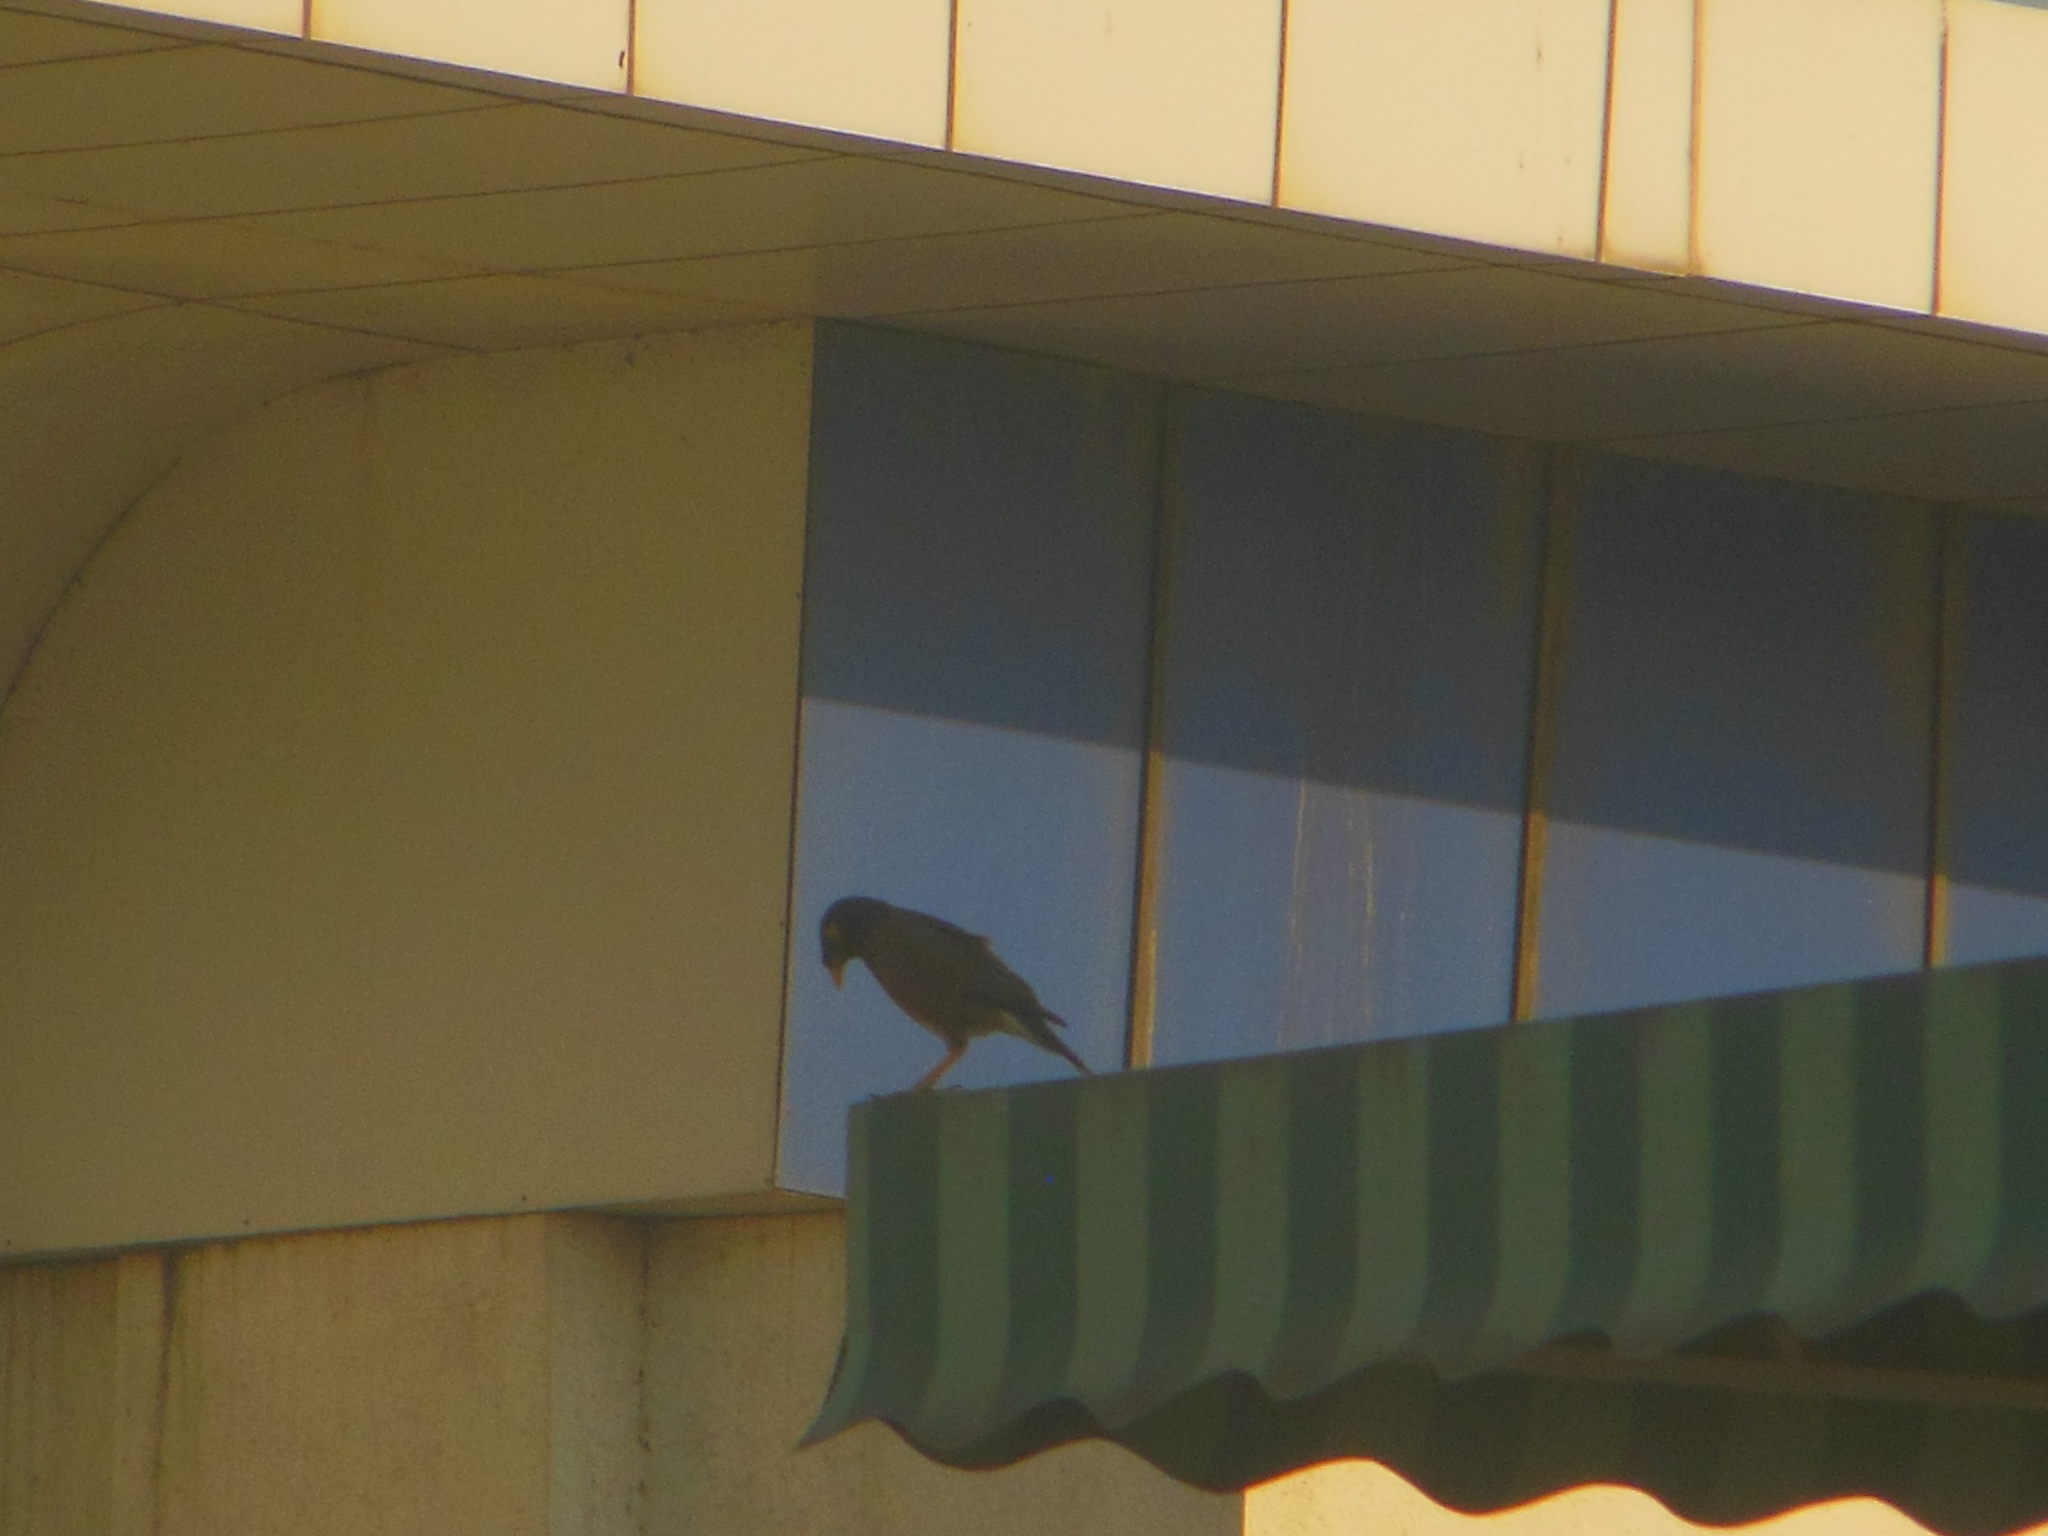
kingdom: Animalia
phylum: Chordata
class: Aves
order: Passeriformes
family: Sturnidae
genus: Acridotheres
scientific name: Acridotheres tristis
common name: Common myna
